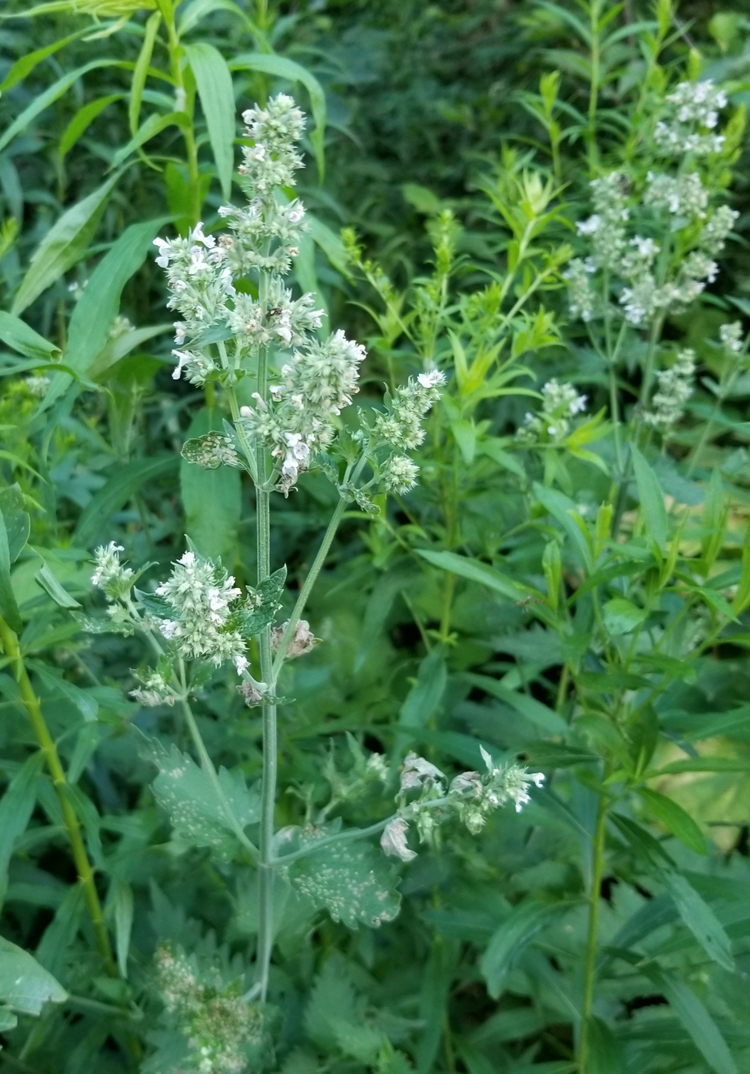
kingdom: Plantae
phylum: Tracheophyta
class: Magnoliopsida
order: Lamiales
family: Lamiaceae
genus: Nepeta
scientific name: Nepeta cataria
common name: Catnip
